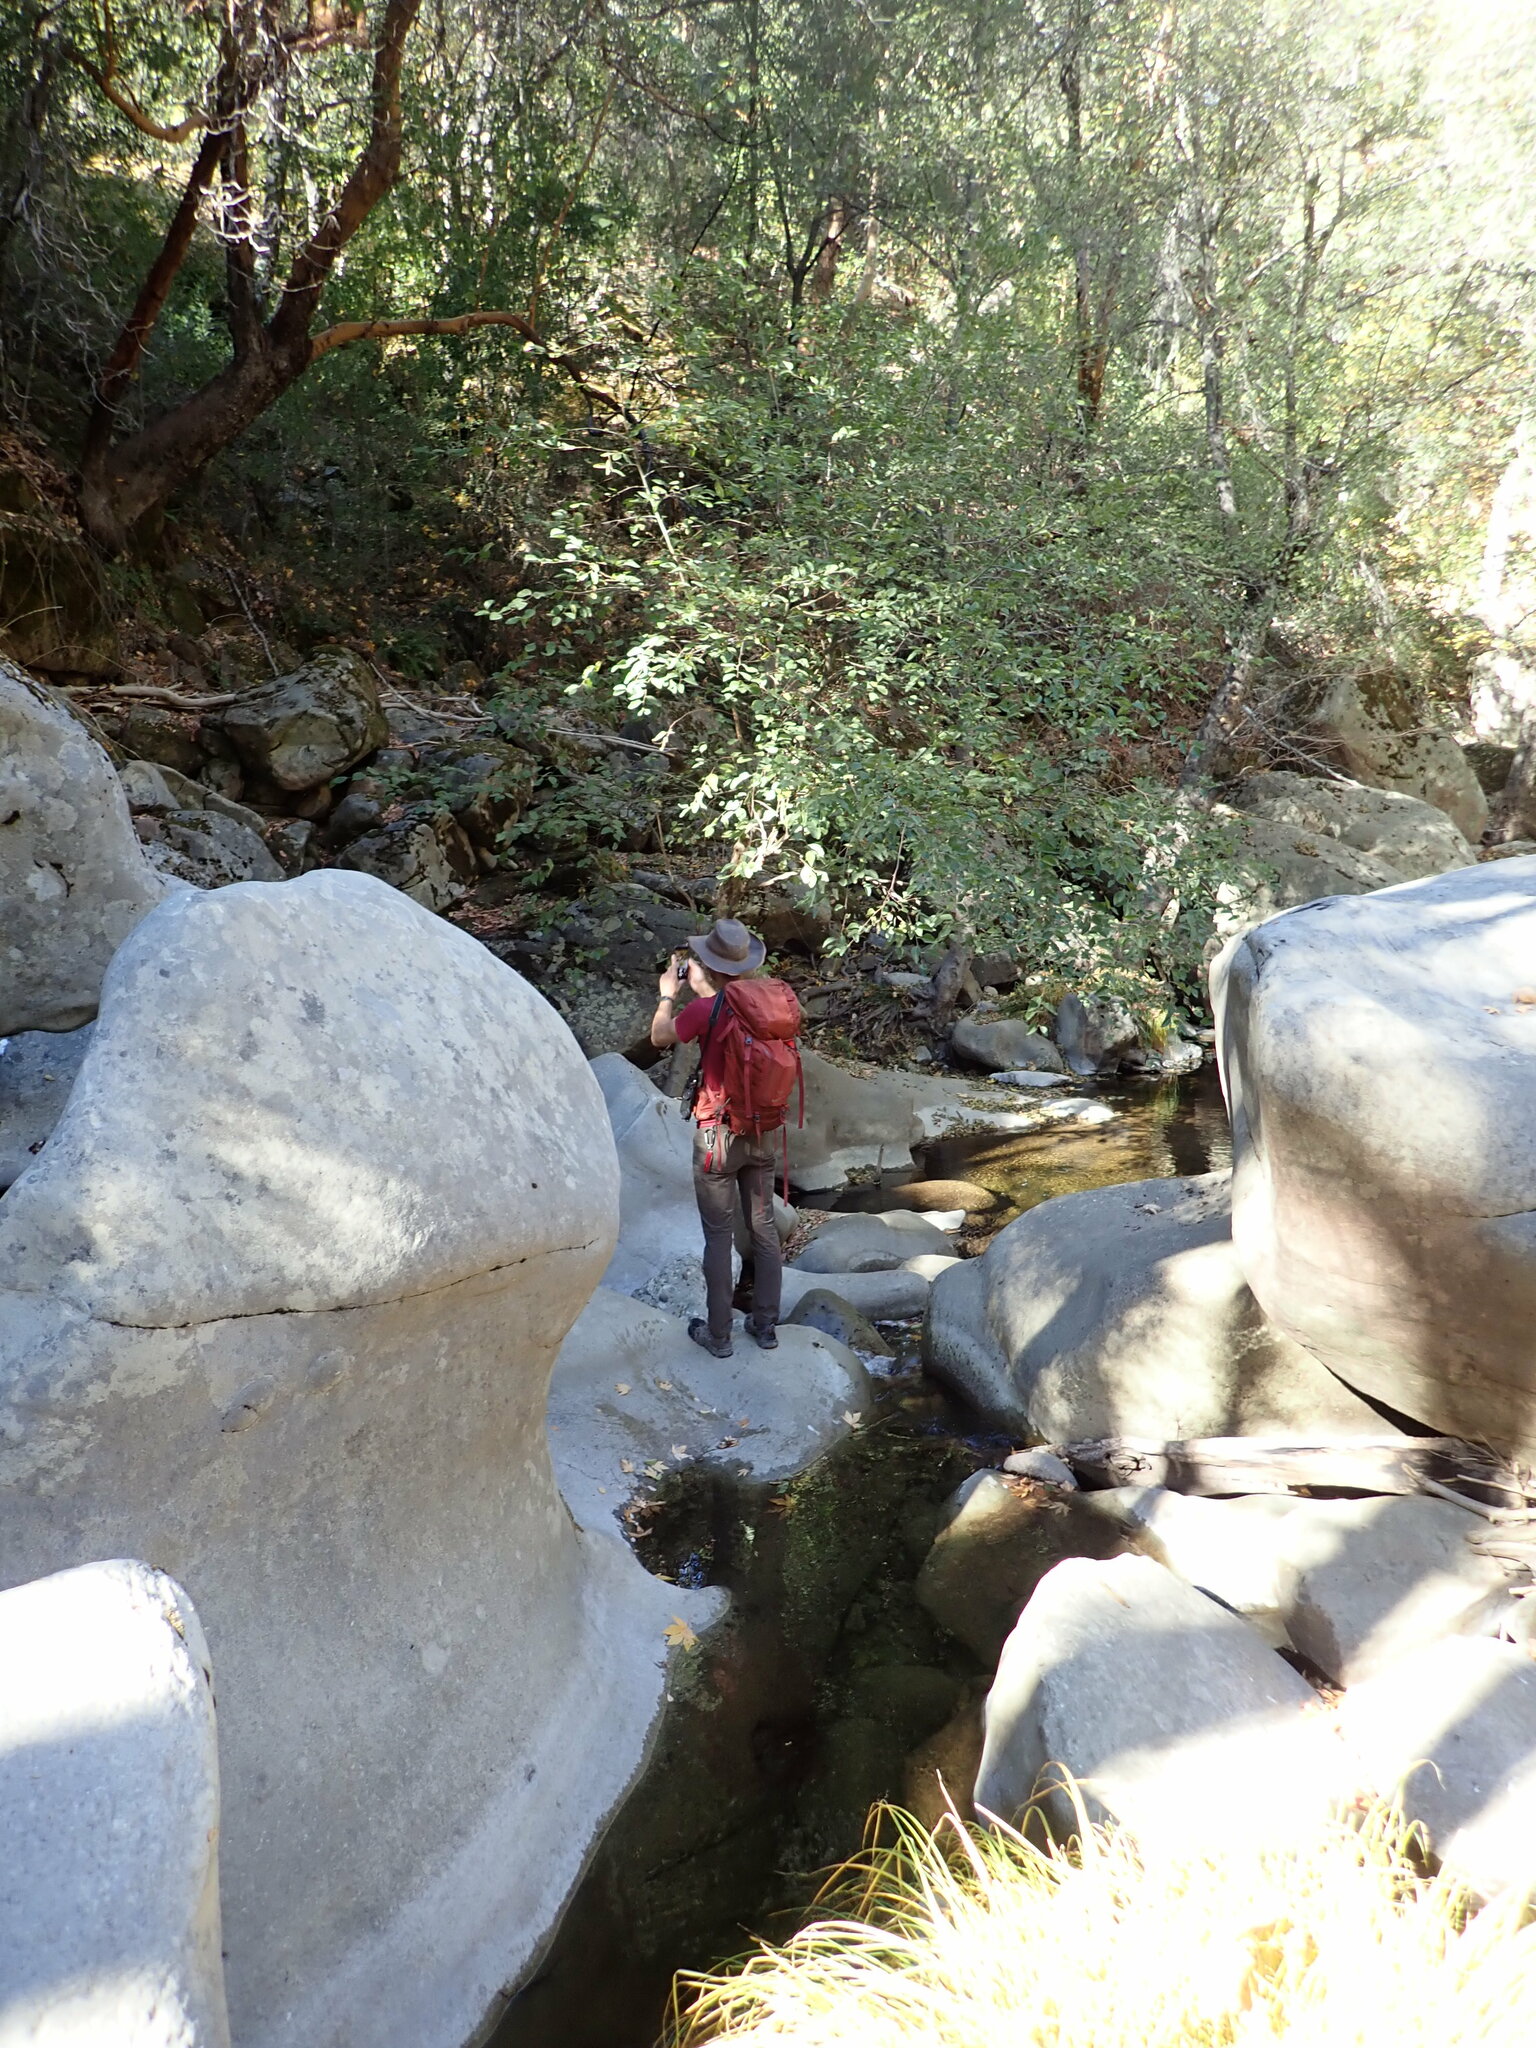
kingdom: Plantae
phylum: Tracheophyta
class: Magnoliopsida
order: Ericales
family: Ericaceae
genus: Arbutus
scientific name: Arbutus menziesii
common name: Pacific madrone
